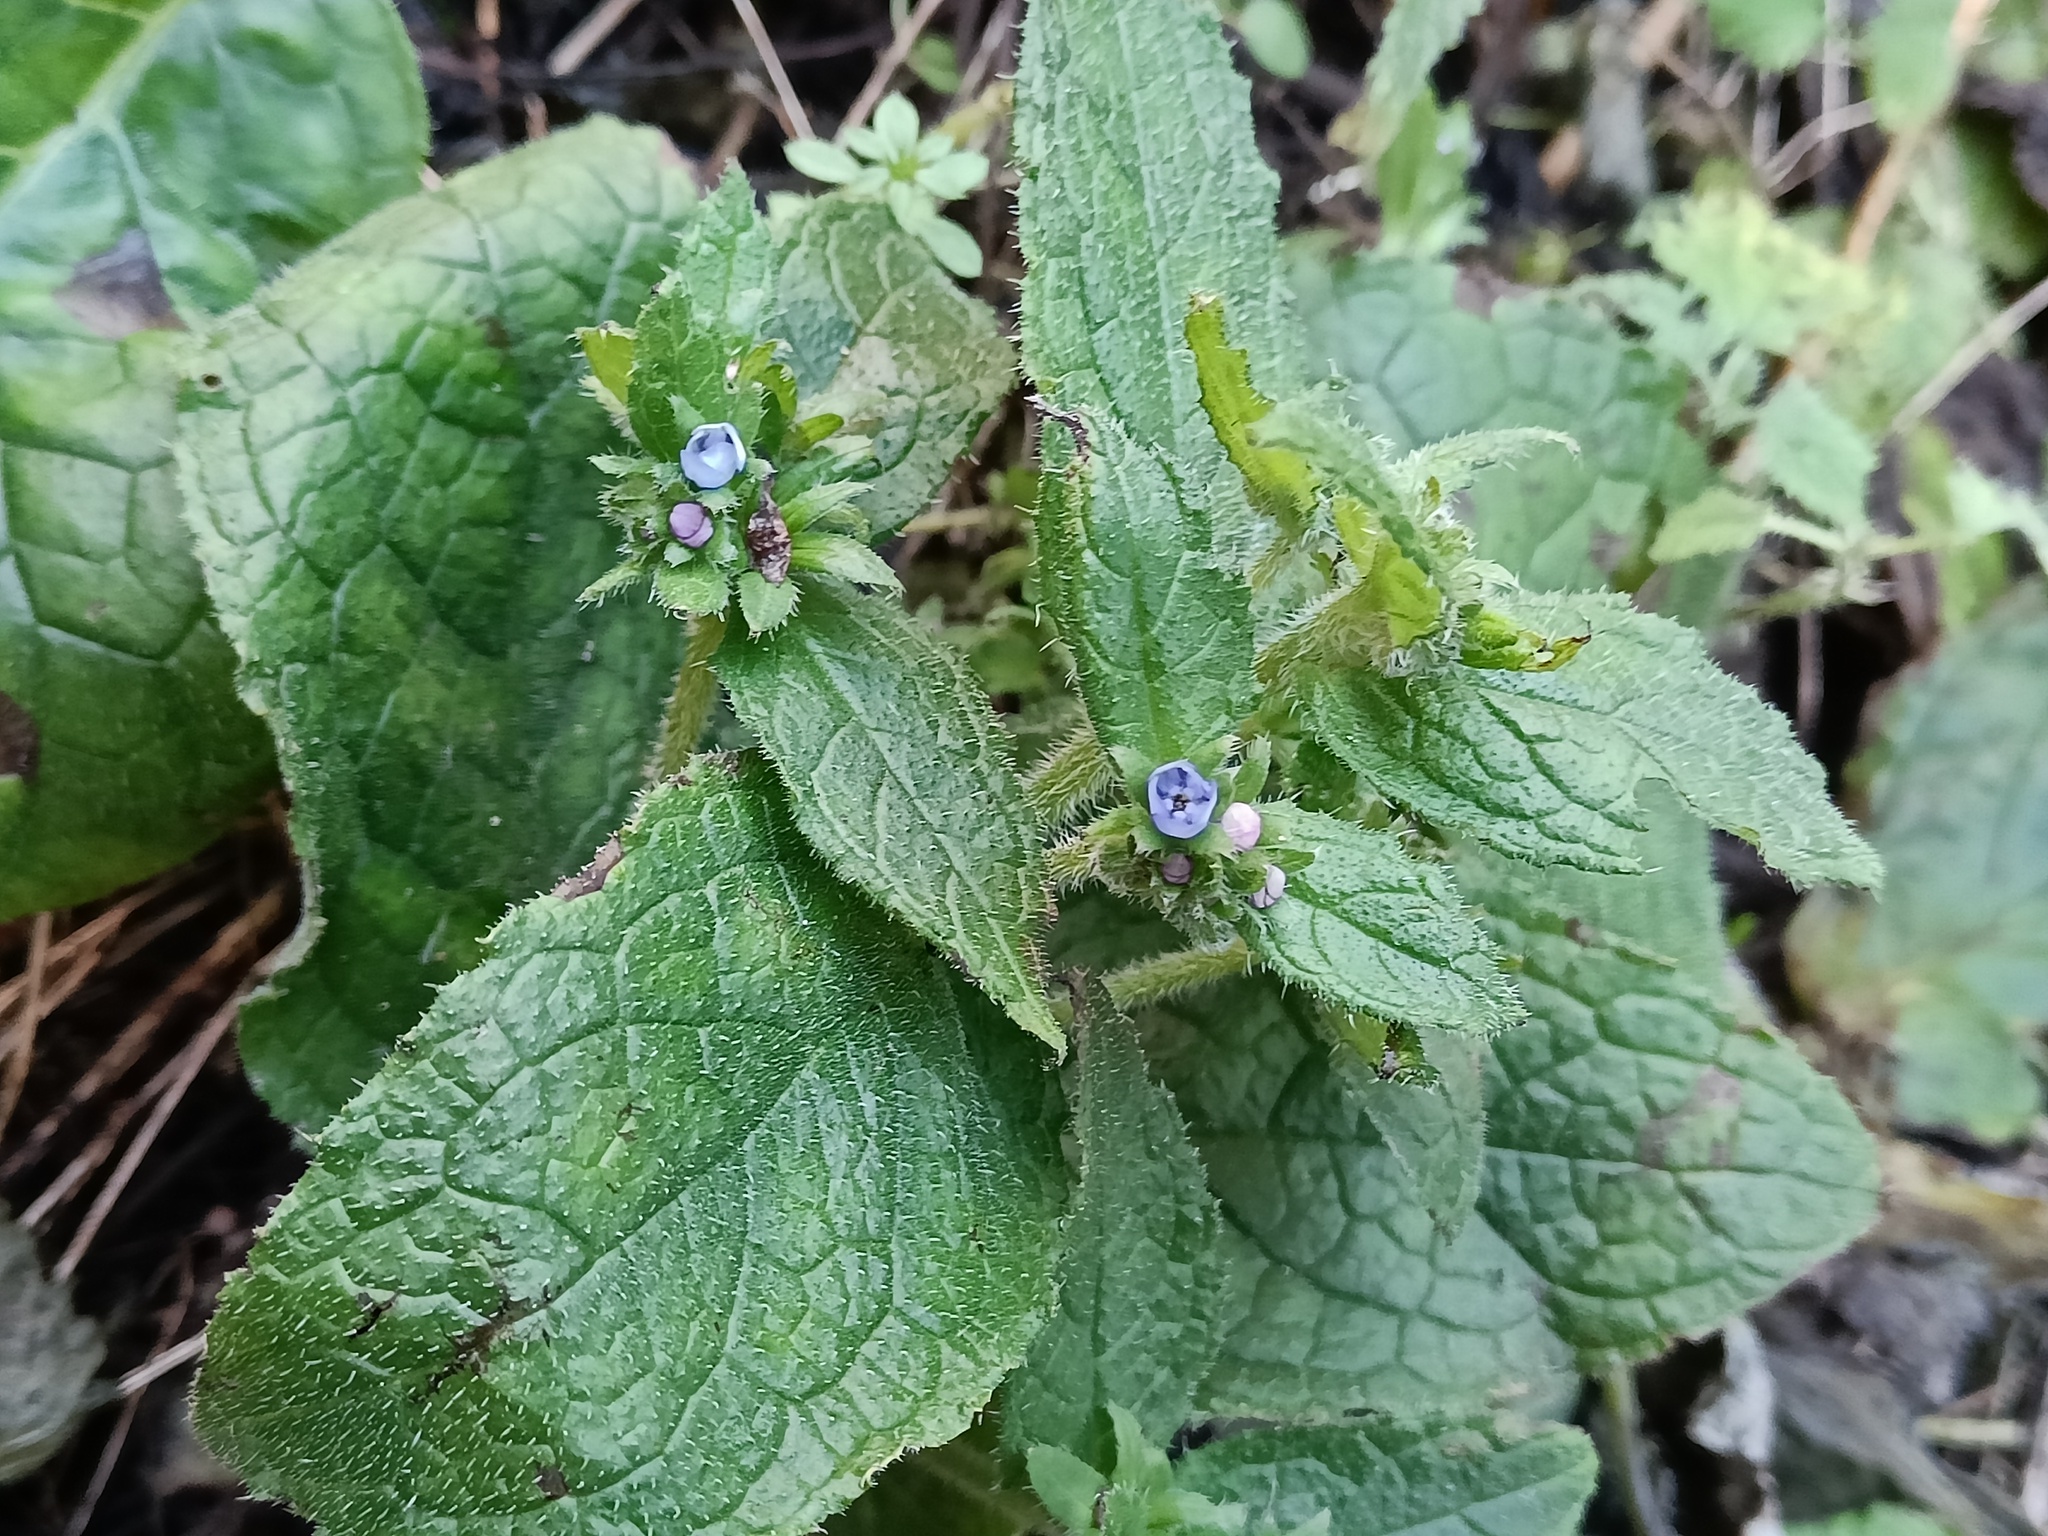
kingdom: Plantae
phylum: Tracheophyta
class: Magnoliopsida
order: Boraginales
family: Boraginaceae
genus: Pentaglottis
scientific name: Pentaglottis sempervirens
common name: Green alkanet
